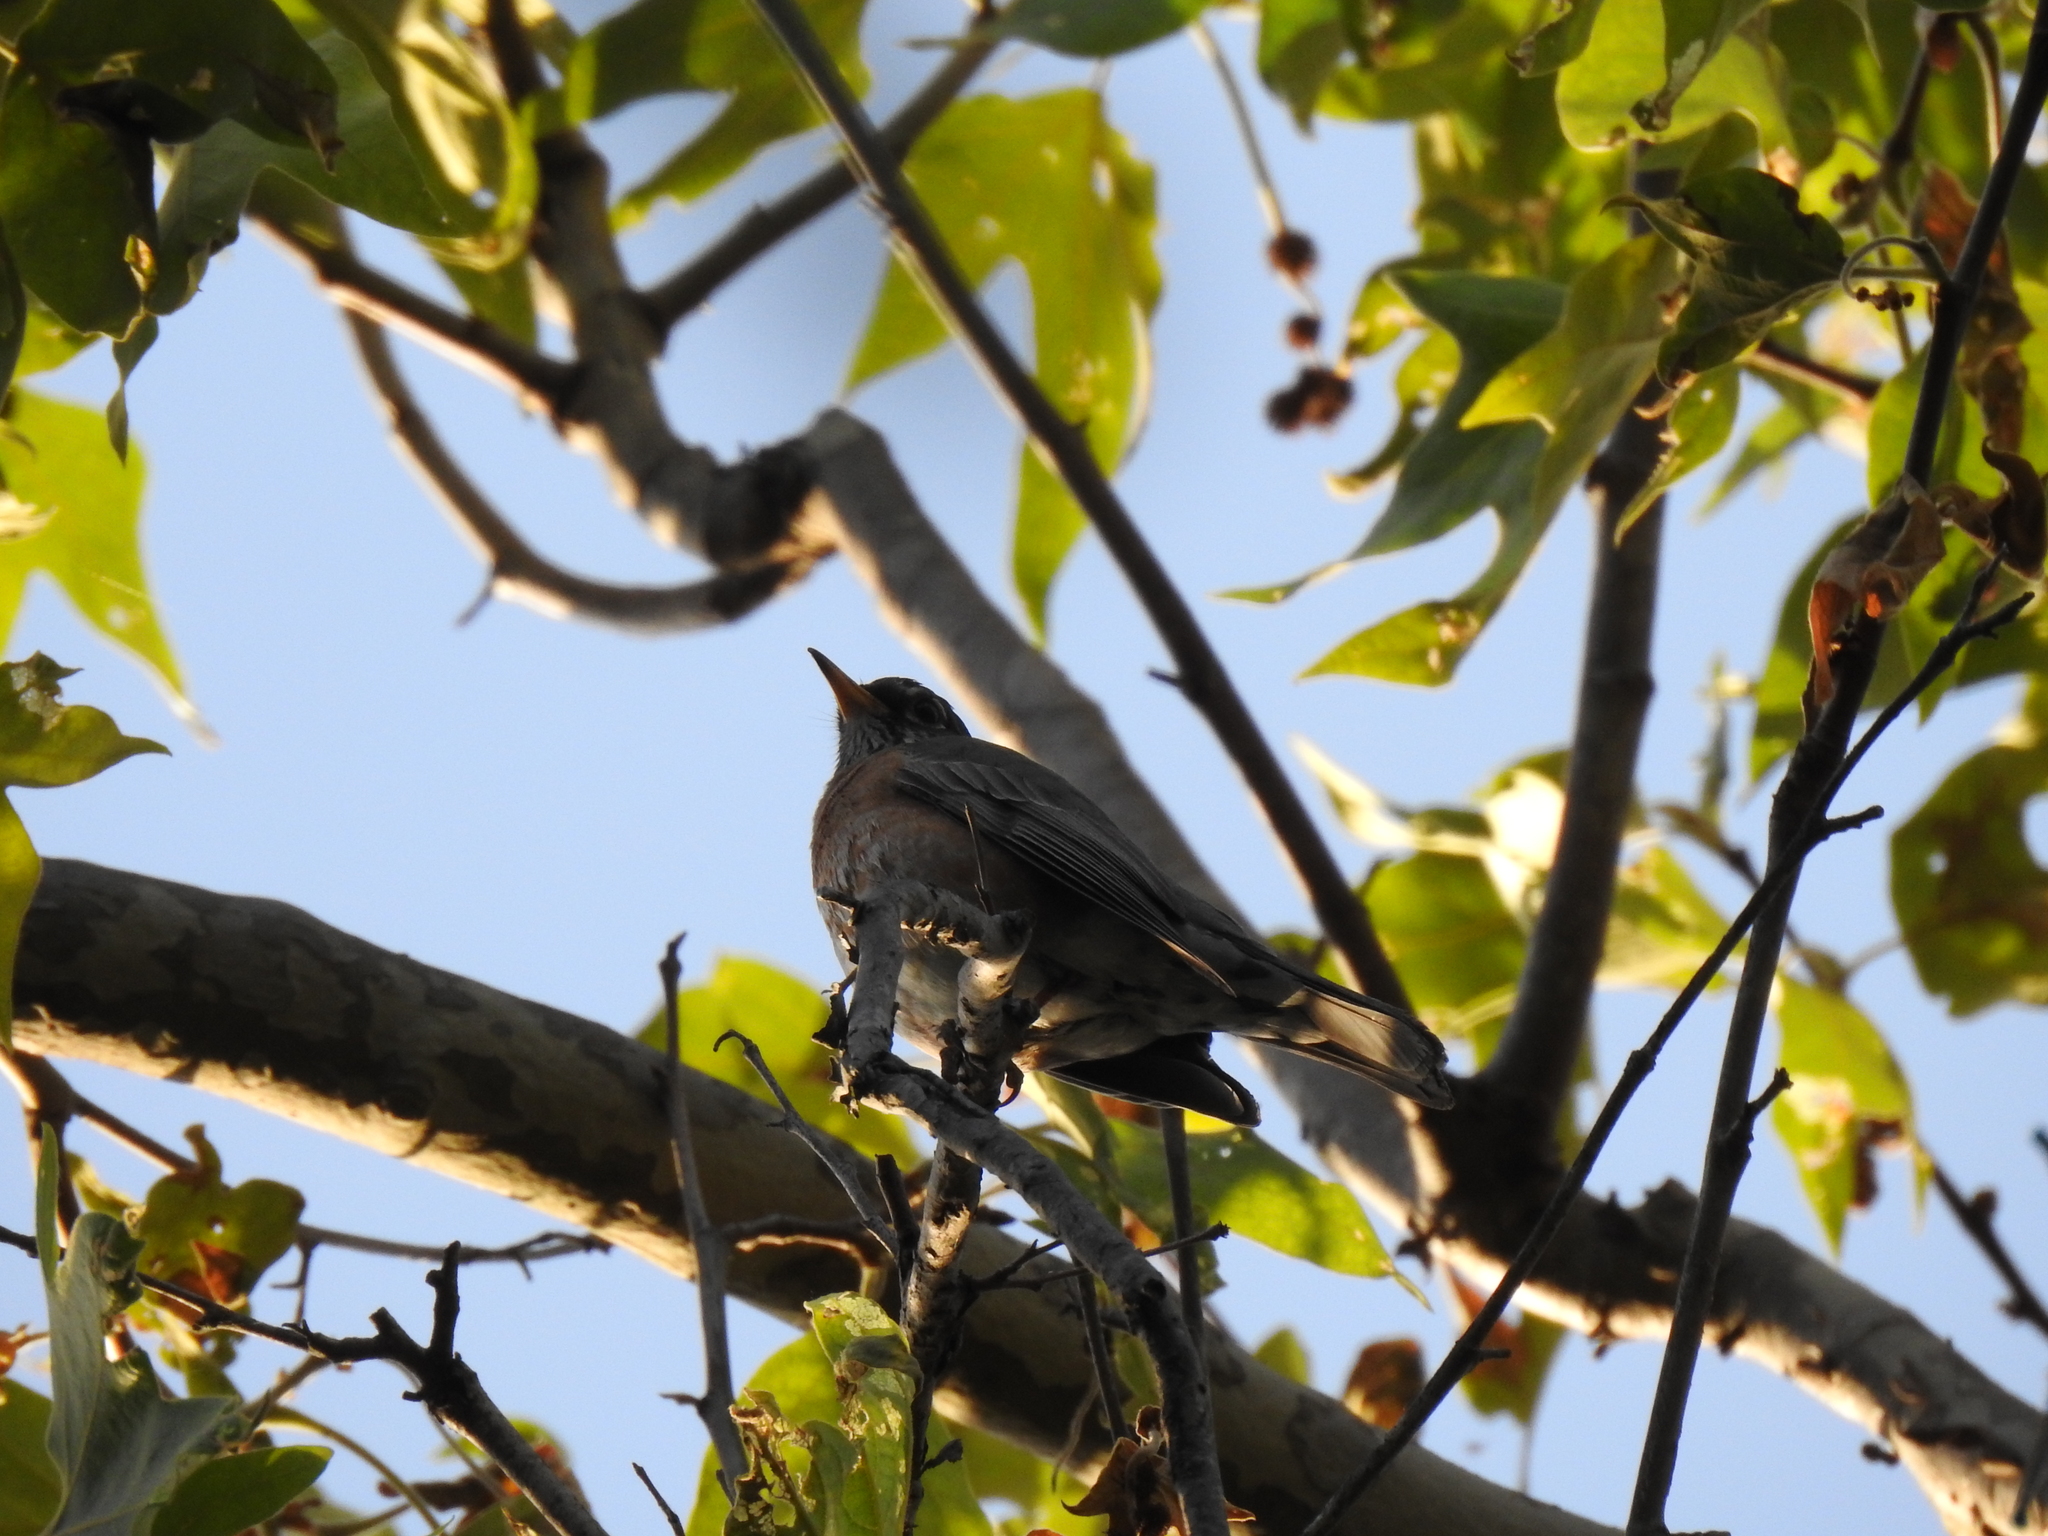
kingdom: Animalia
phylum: Chordata
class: Aves
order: Passeriformes
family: Turdidae
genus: Turdus
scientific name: Turdus migratorius
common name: American robin
